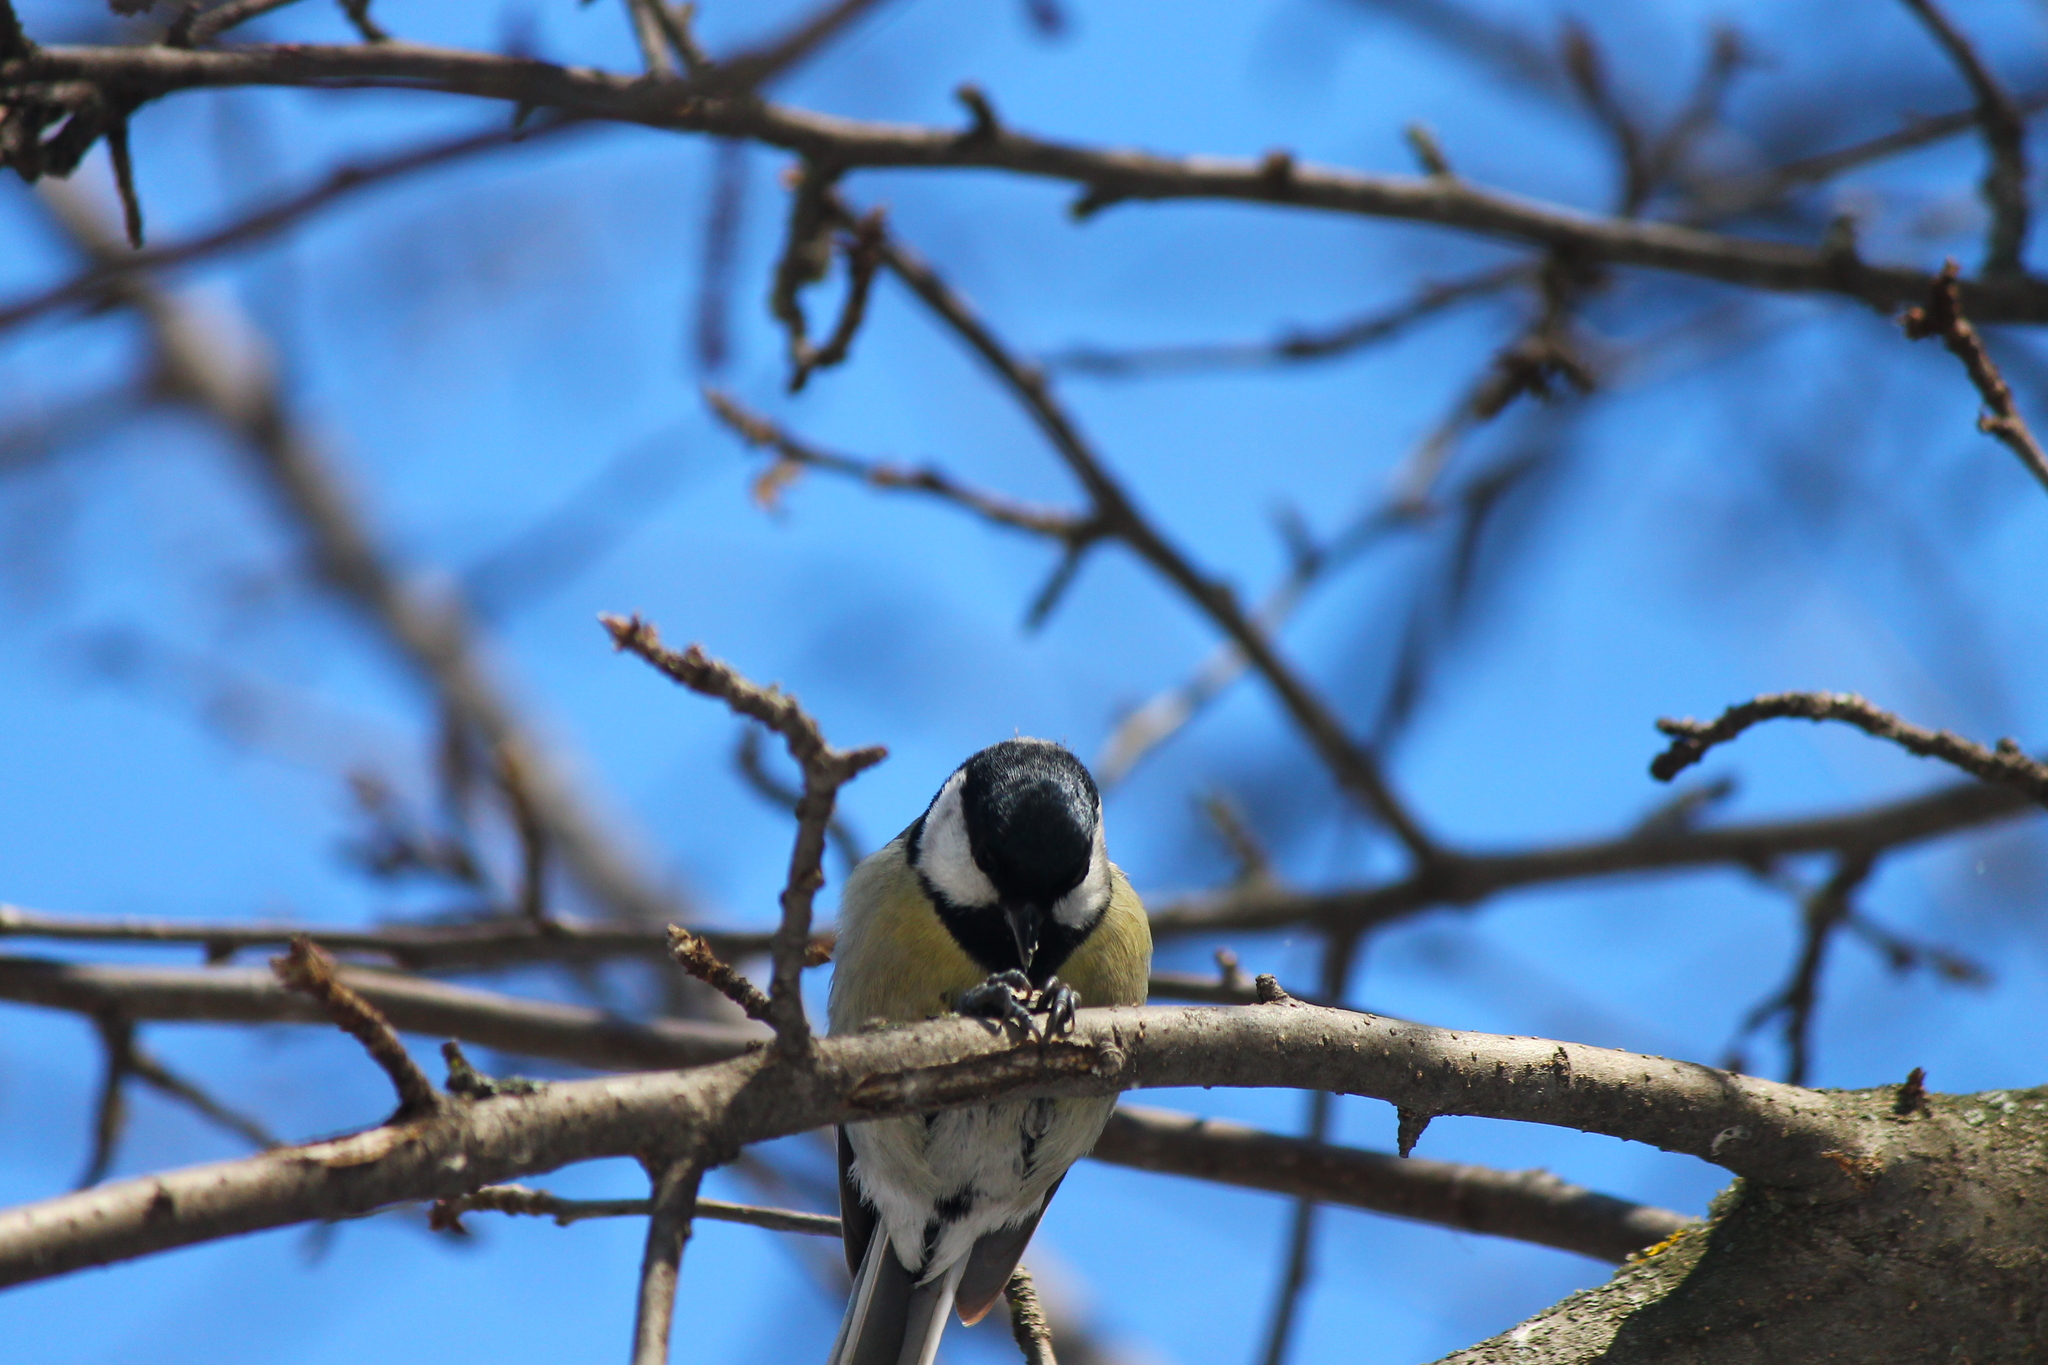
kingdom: Animalia
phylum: Chordata
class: Aves
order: Passeriformes
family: Paridae
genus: Parus
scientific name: Parus major
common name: Great tit
